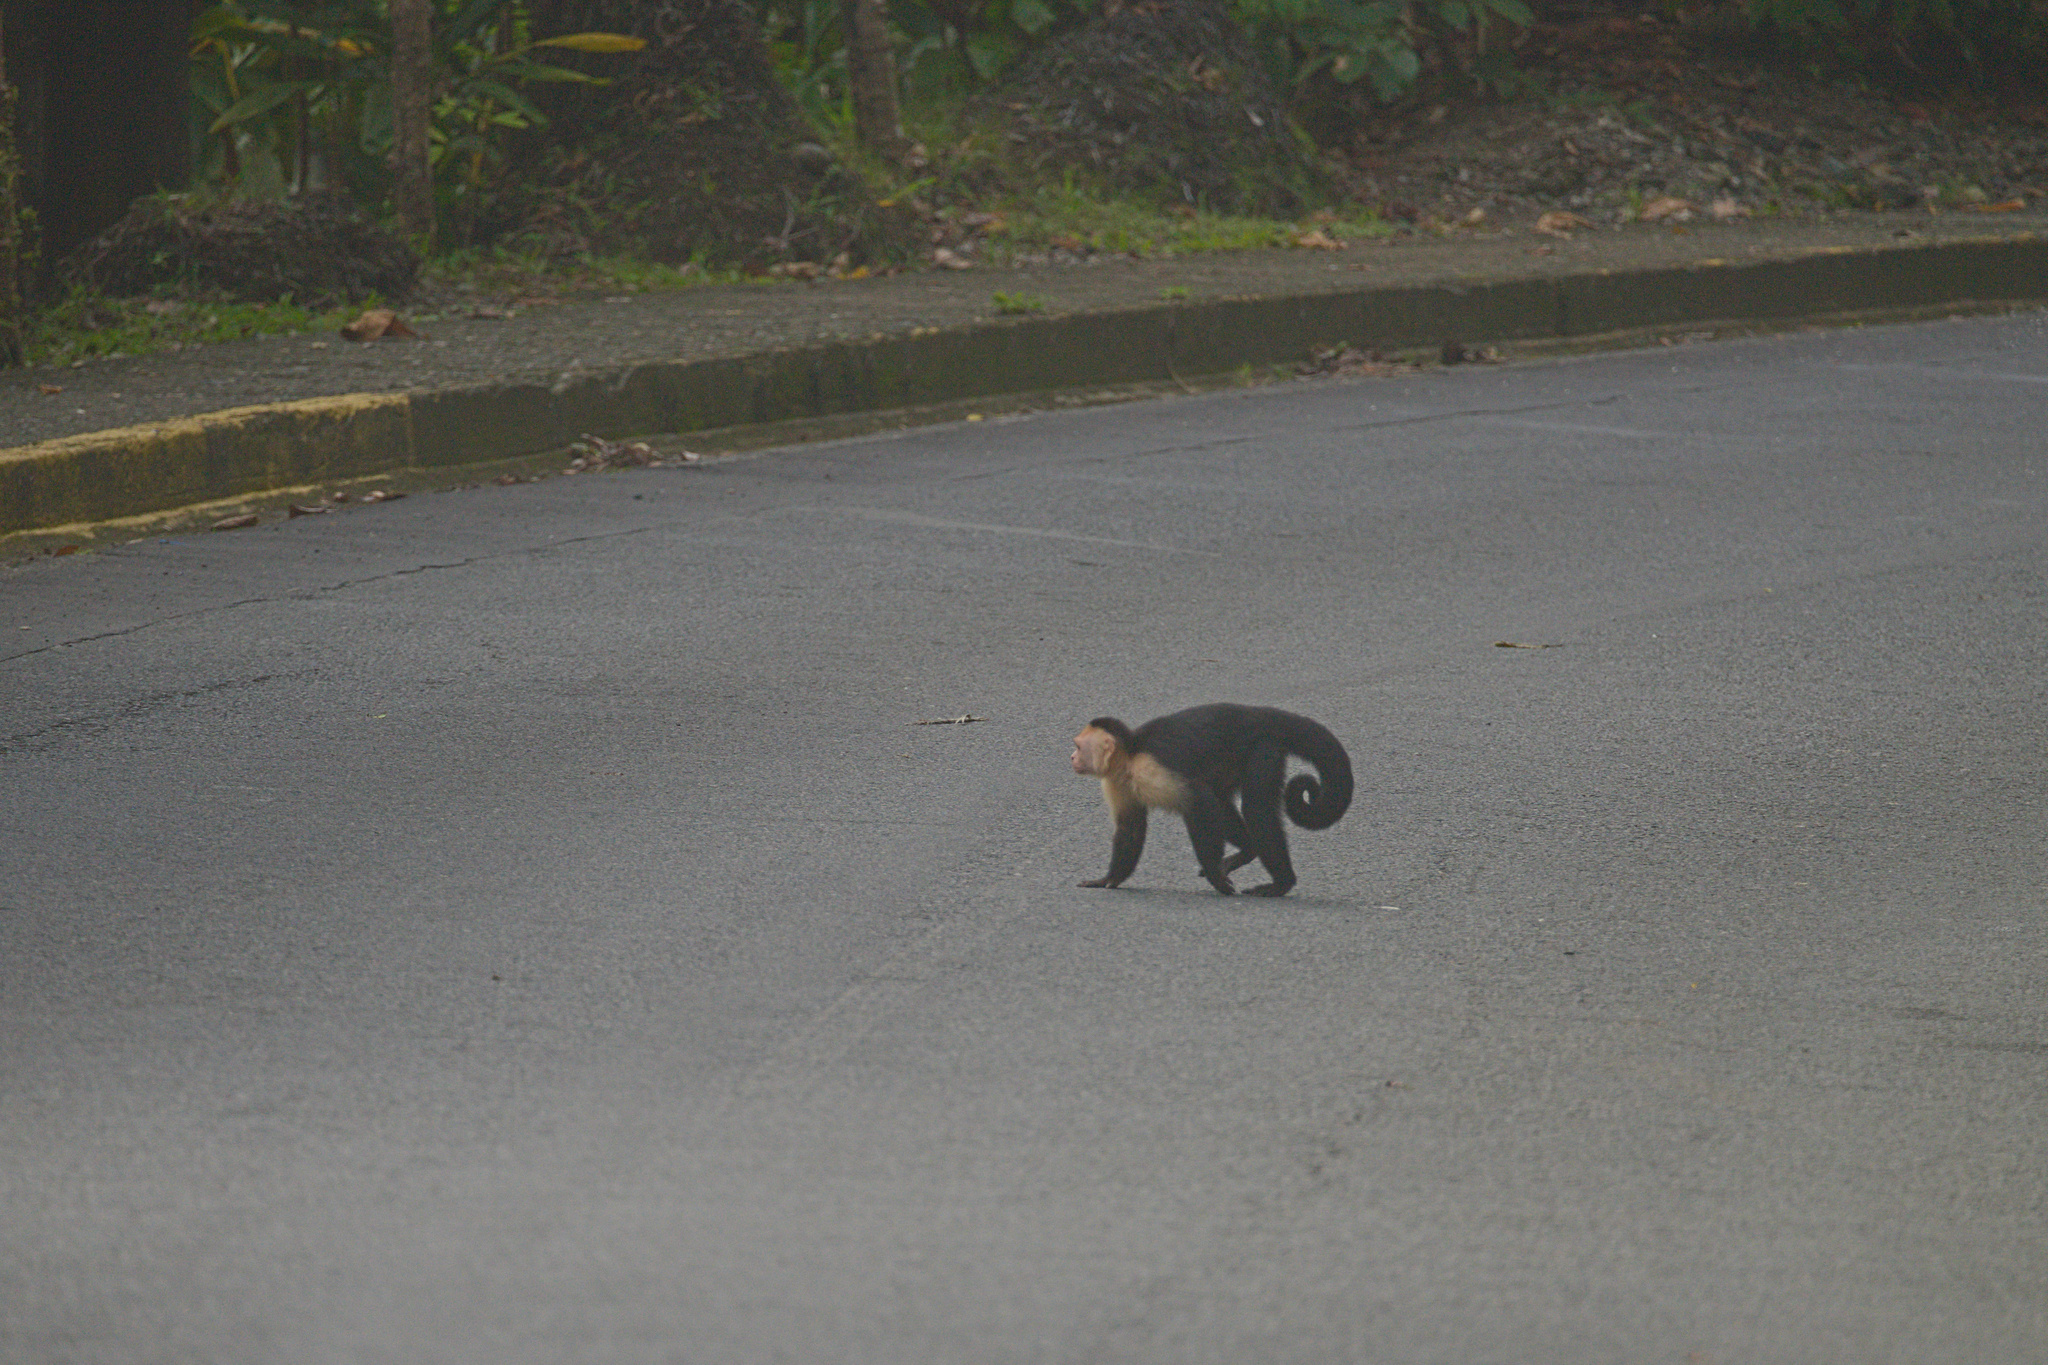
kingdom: Animalia
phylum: Chordata
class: Mammalia
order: Primates
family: Cebidae
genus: Cebus
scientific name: Cebus imitator
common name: Panamanian white-faced capuchin
